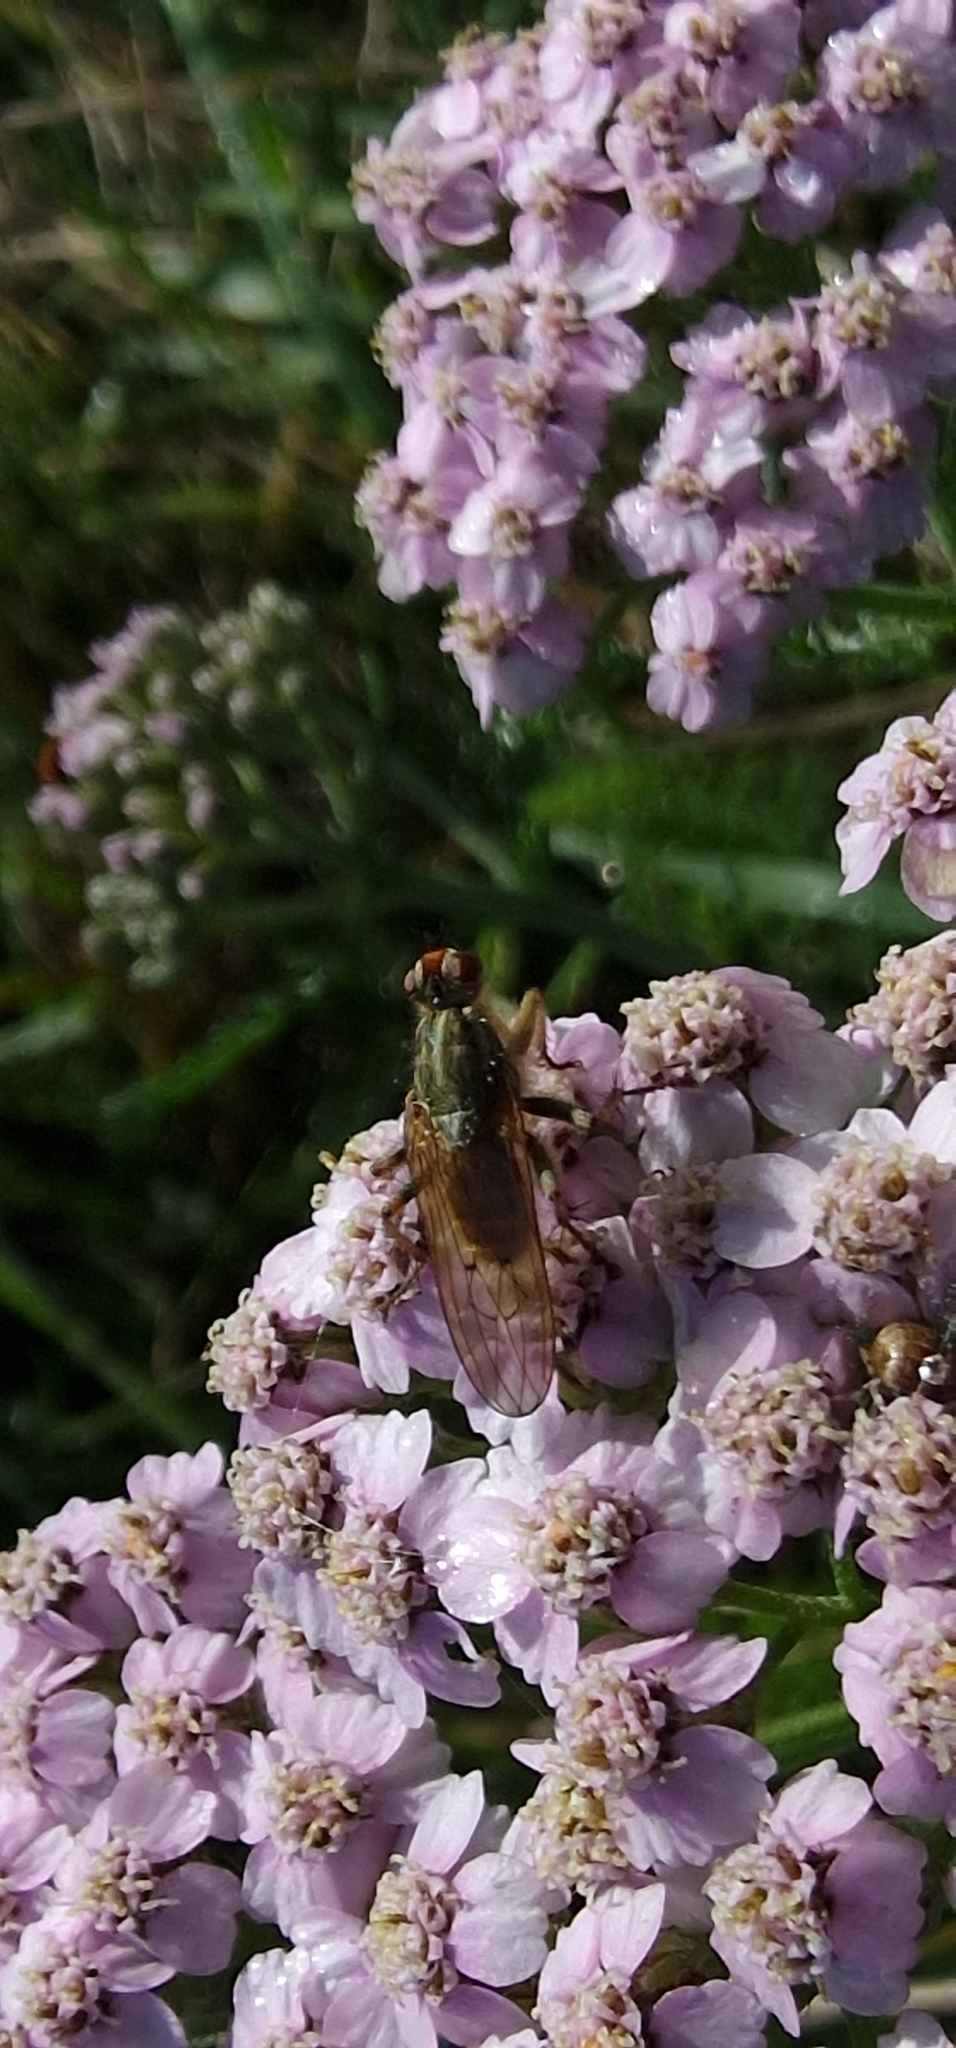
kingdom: Animalia
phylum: Arthropoda
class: Insecta
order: Diptera
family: Scathophagidae
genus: Scathophaga
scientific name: Scathophaga stercoraria
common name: Yellow dung fly
